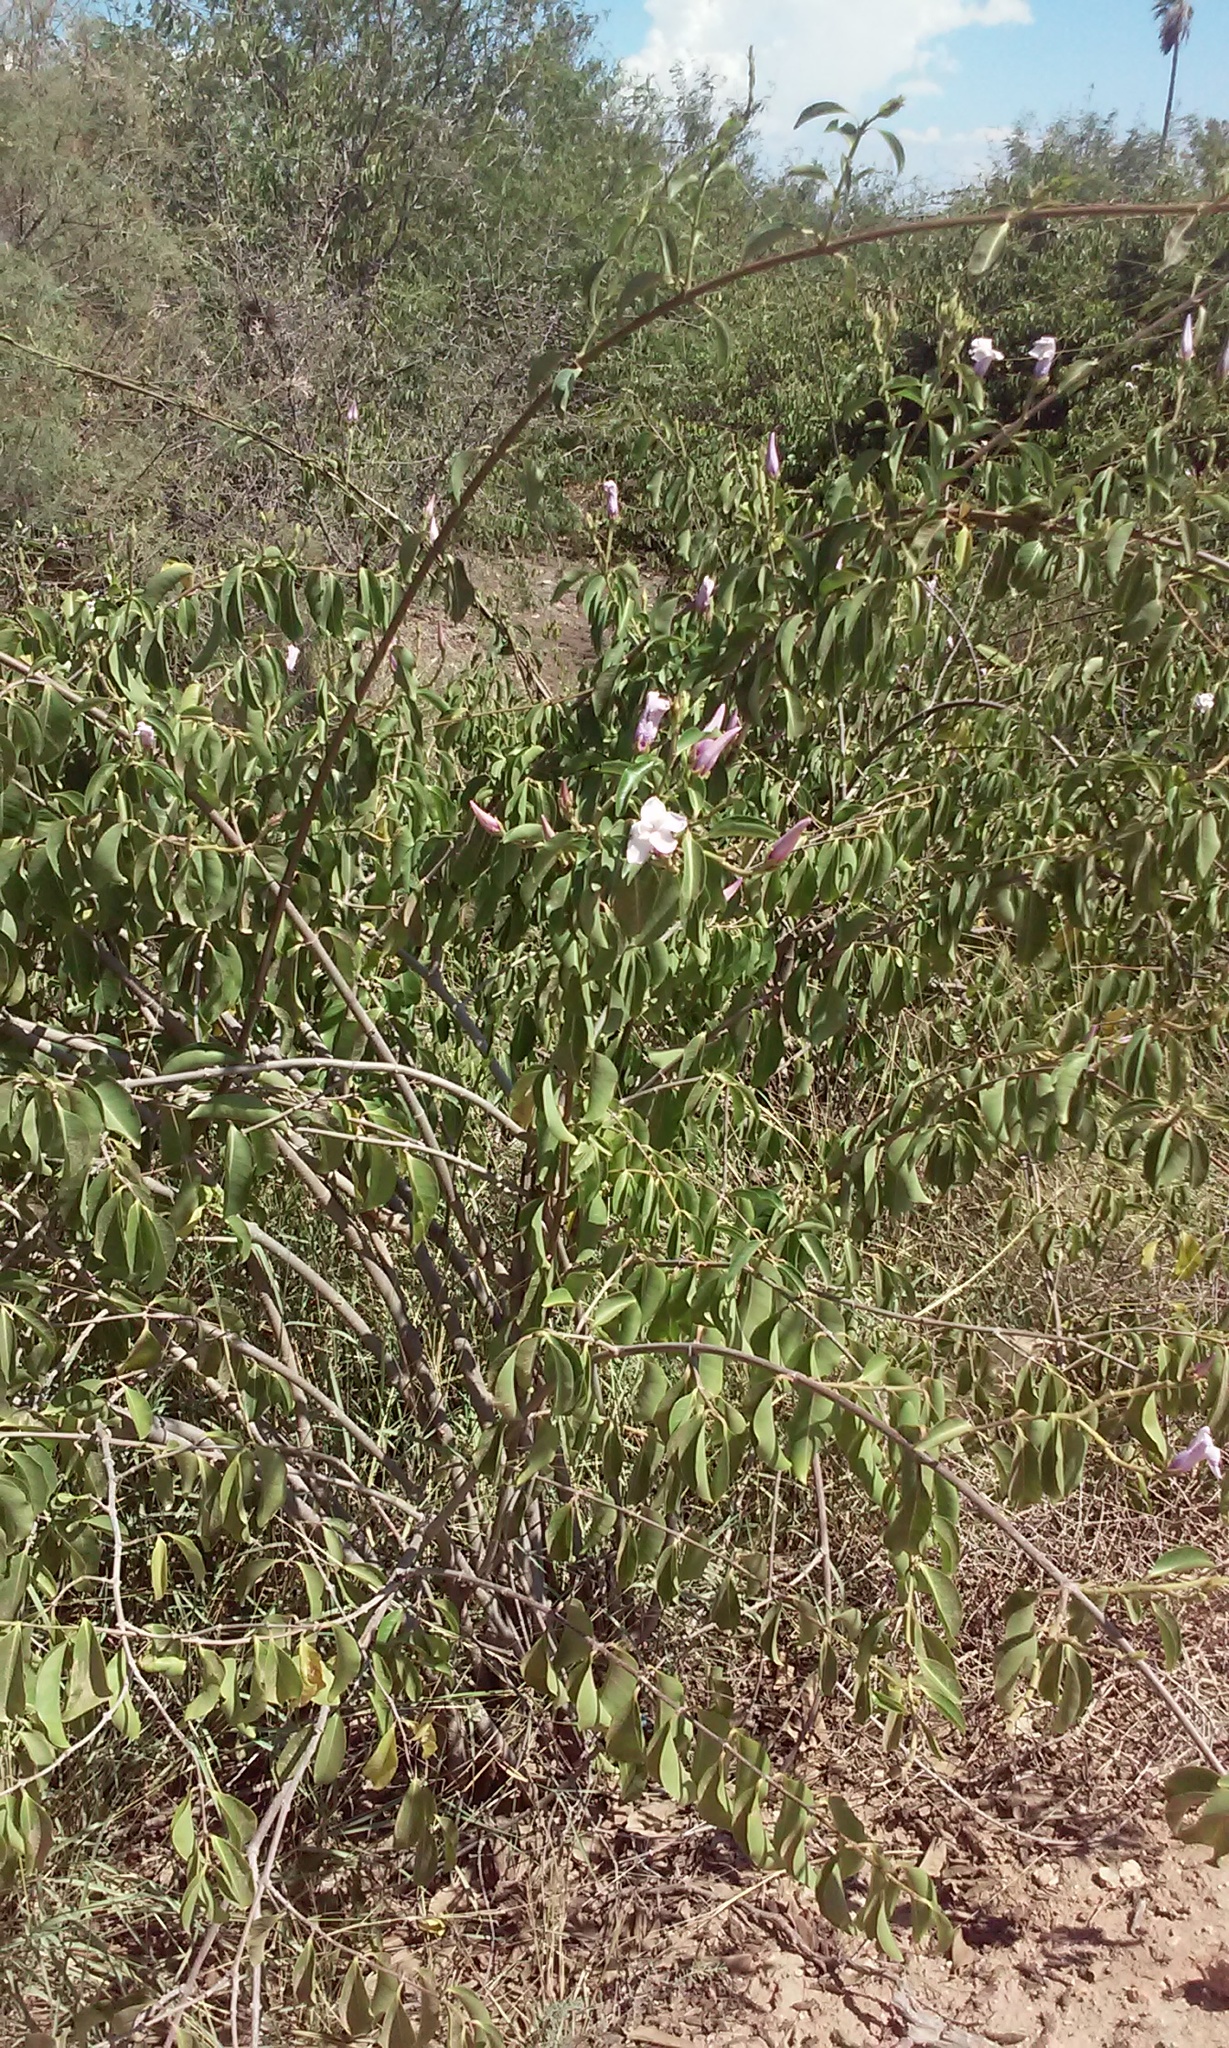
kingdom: Plantae
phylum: Tracheophyta
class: Magnoliopsida
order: Gentianales
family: Apocynaceae
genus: Cryptostegia
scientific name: Cryptostegia grandiflora
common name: Palay rubbervine
